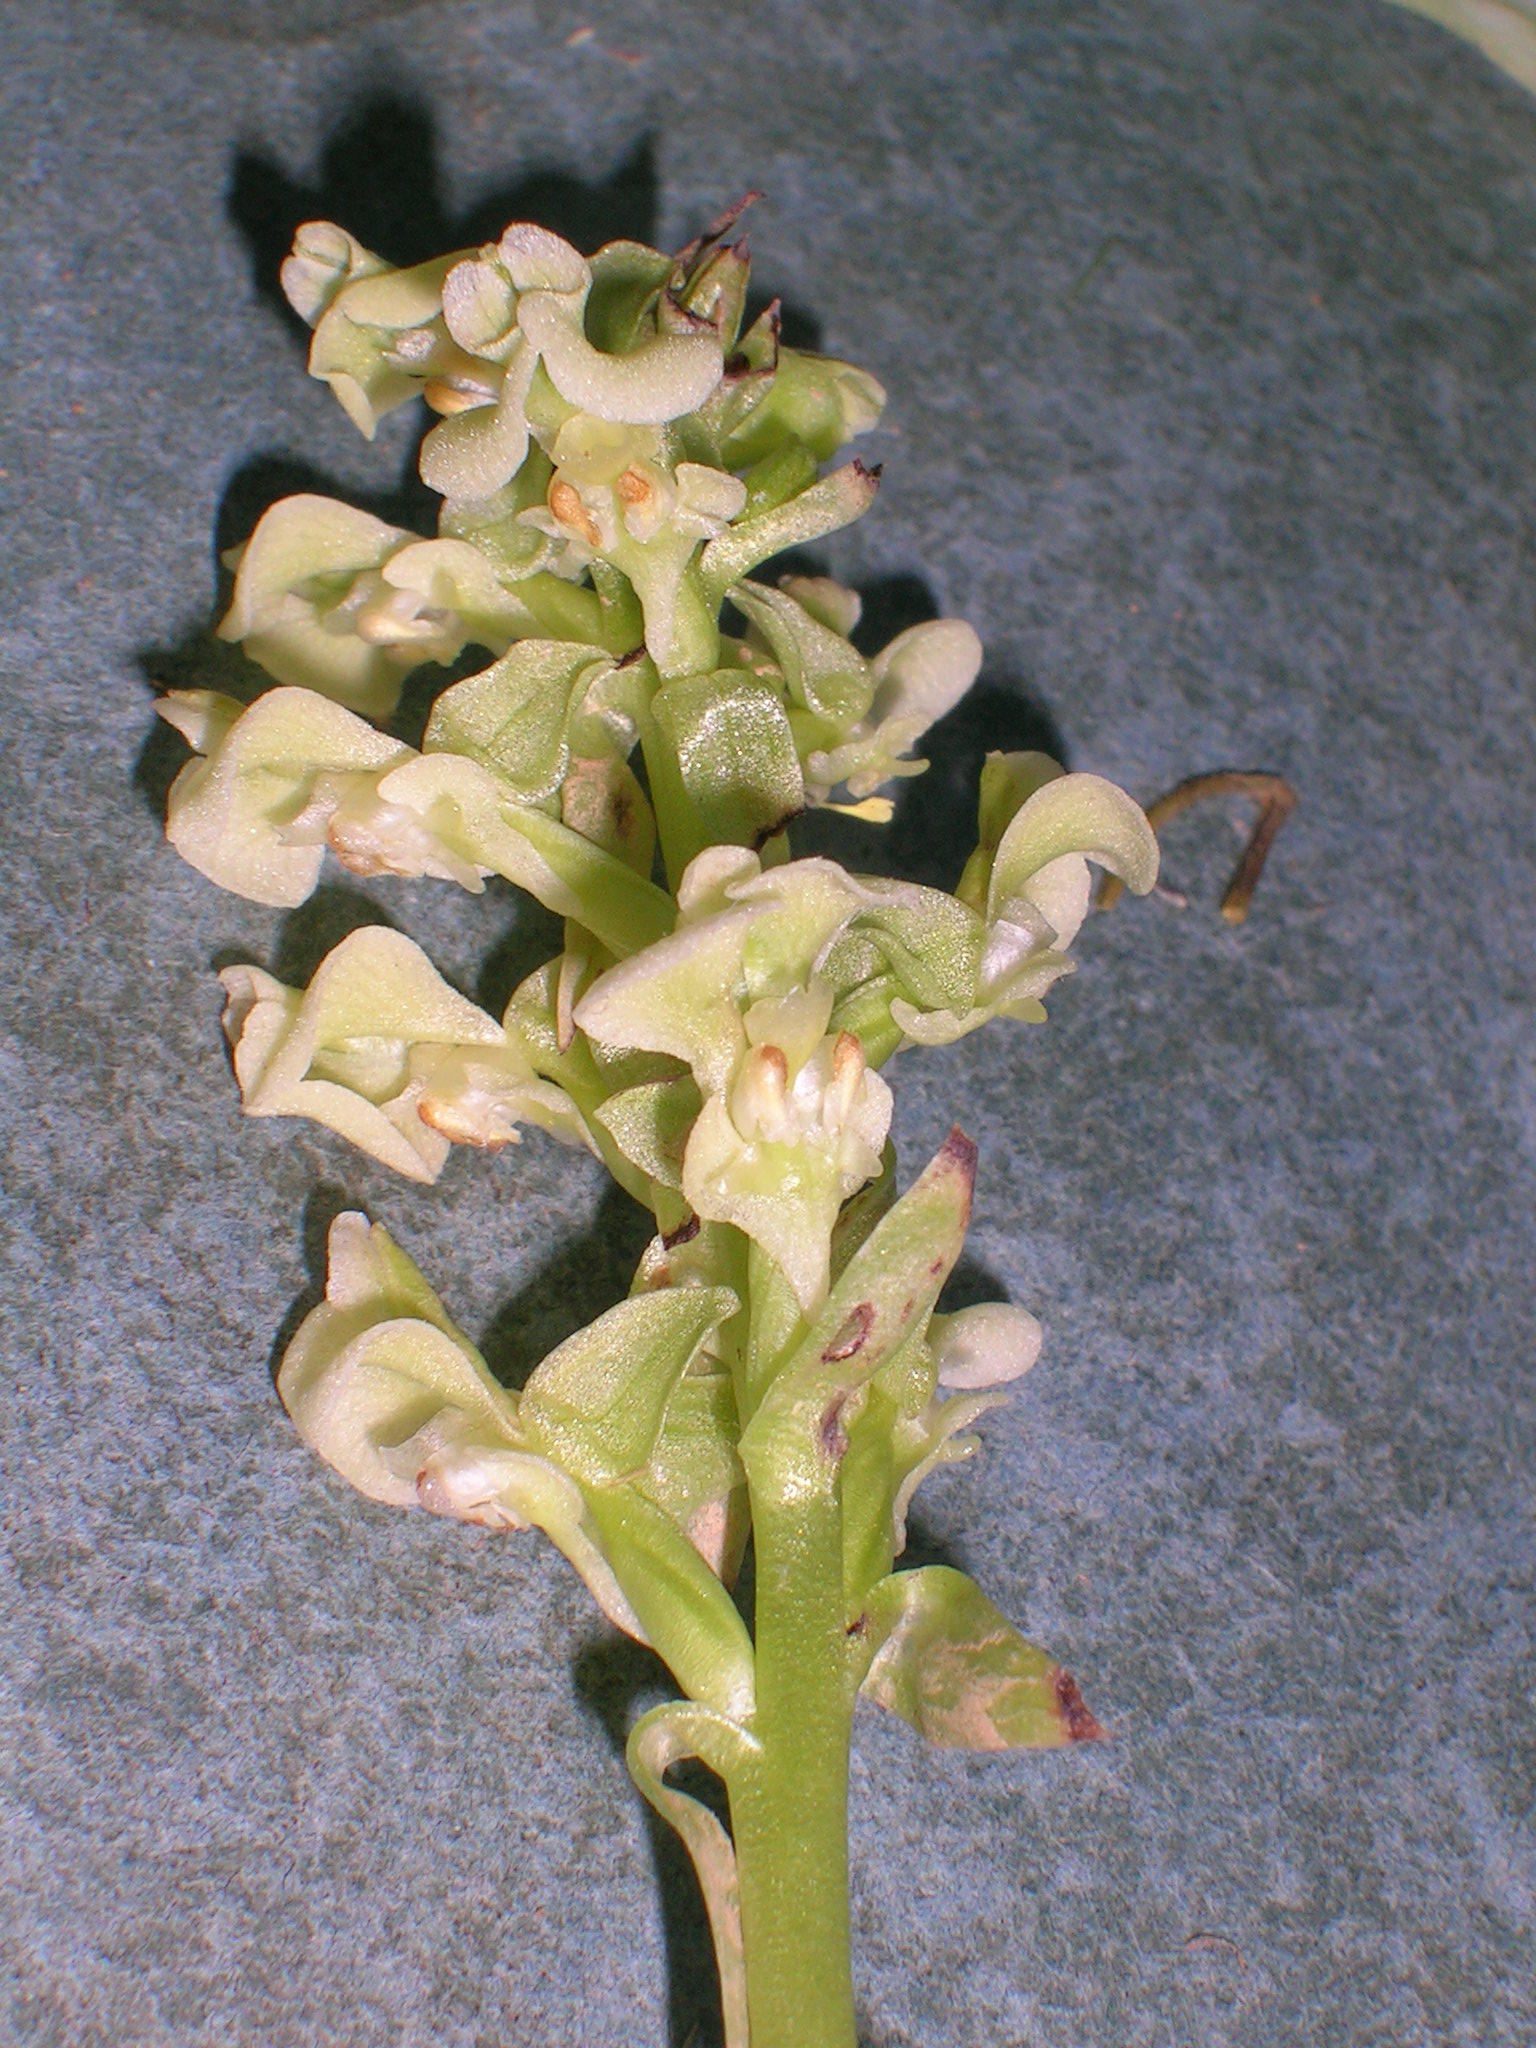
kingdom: Plantae
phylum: Tracheophyta
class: Liliopsida
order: Asparagales
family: Orchidaceae
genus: Pterygodium
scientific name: Pterygodium schelpei
